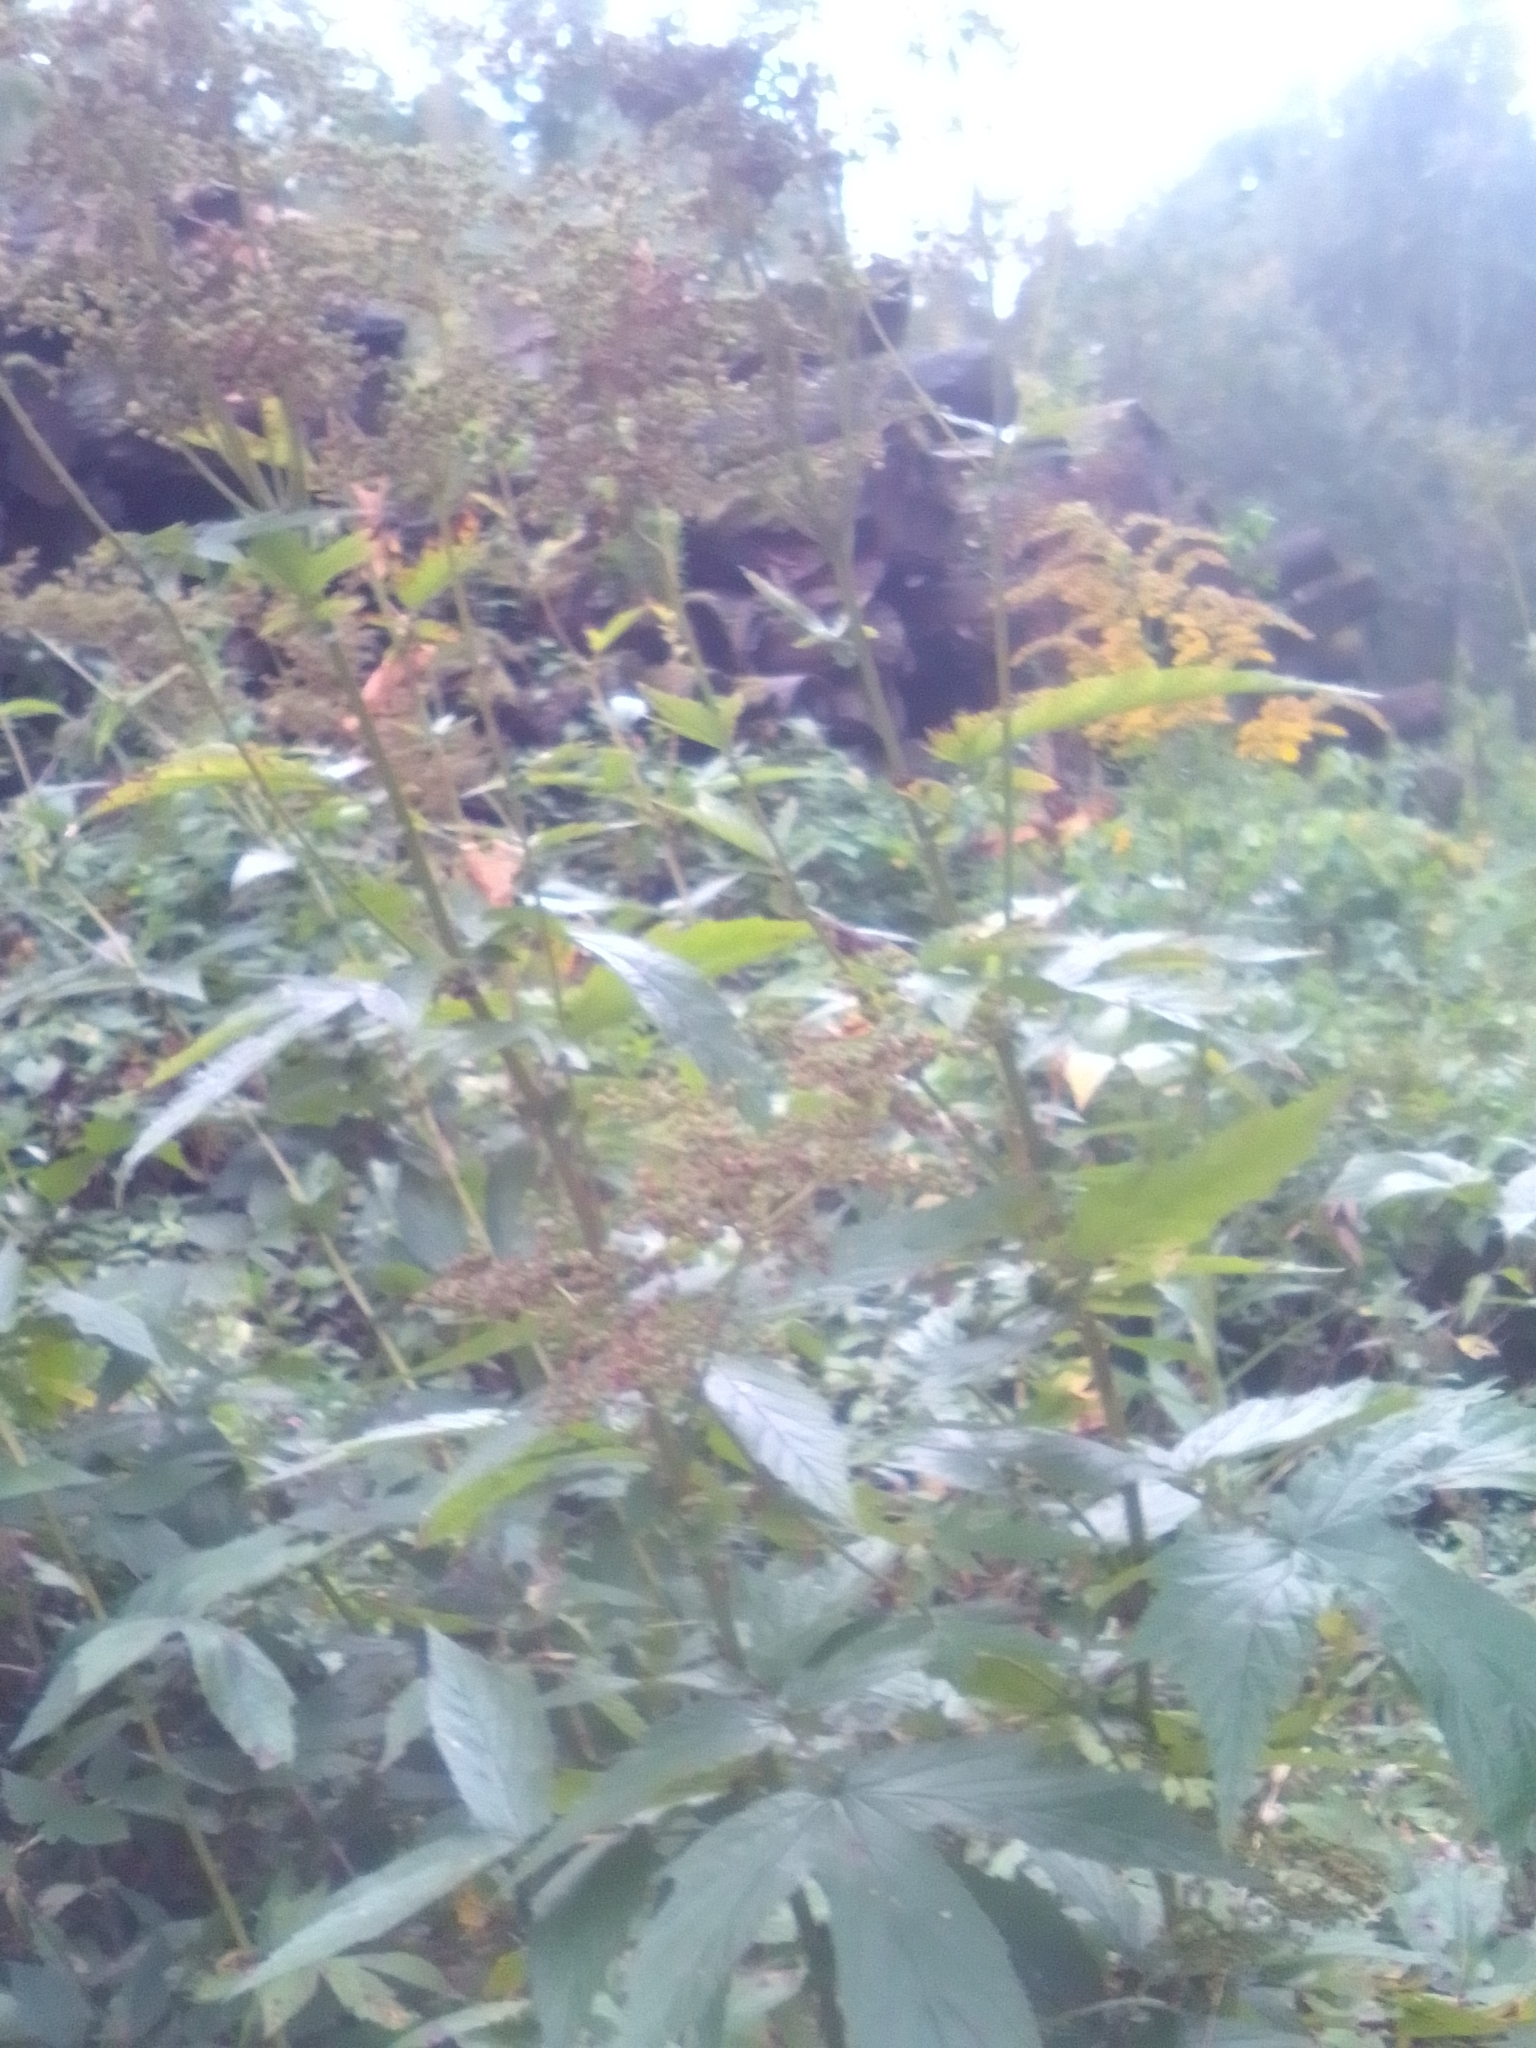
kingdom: Plantae
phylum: Tracheophyta
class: Magnoliopsida
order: Rosales
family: Rosaceae
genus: Filipendula
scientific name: Filipendula ulmaria
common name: Meadowsweet
